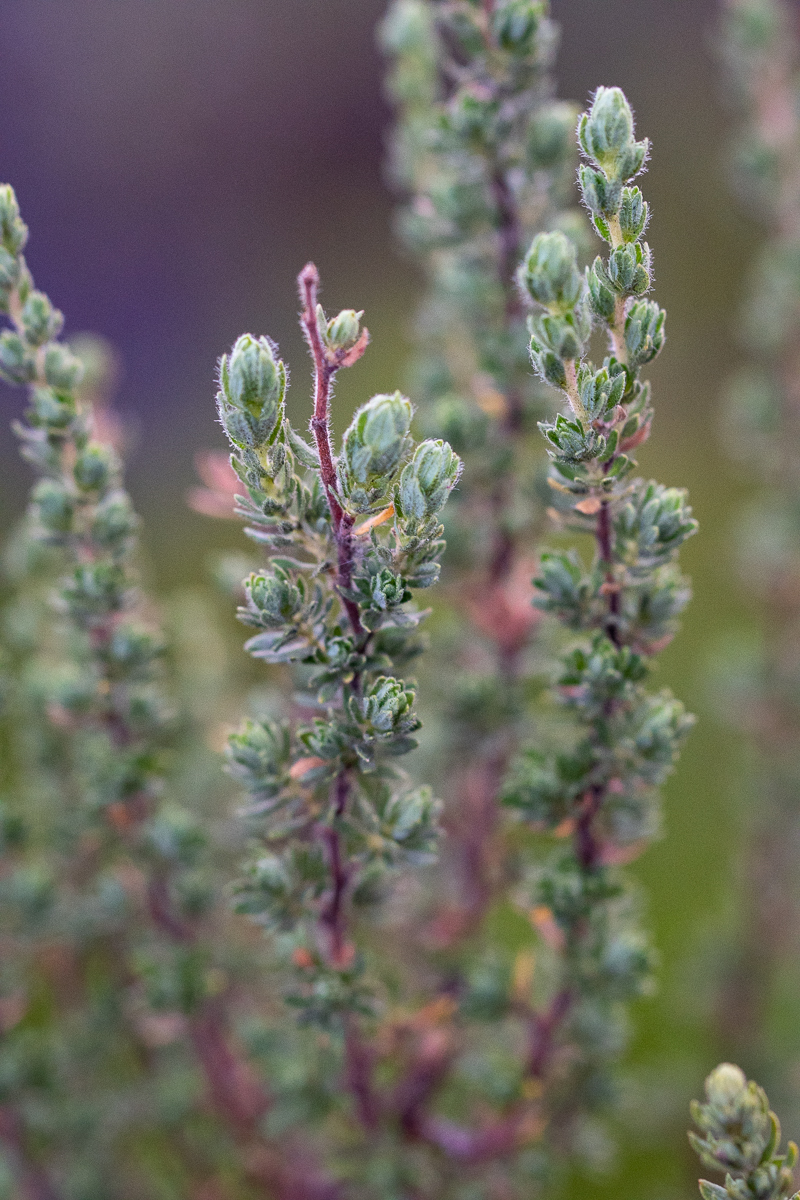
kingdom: Plantae
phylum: Tracheophyta
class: Magnoliopsida
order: Rosales
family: Rosaceae
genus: Cliffortia
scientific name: Cliffortia polygonifolia
